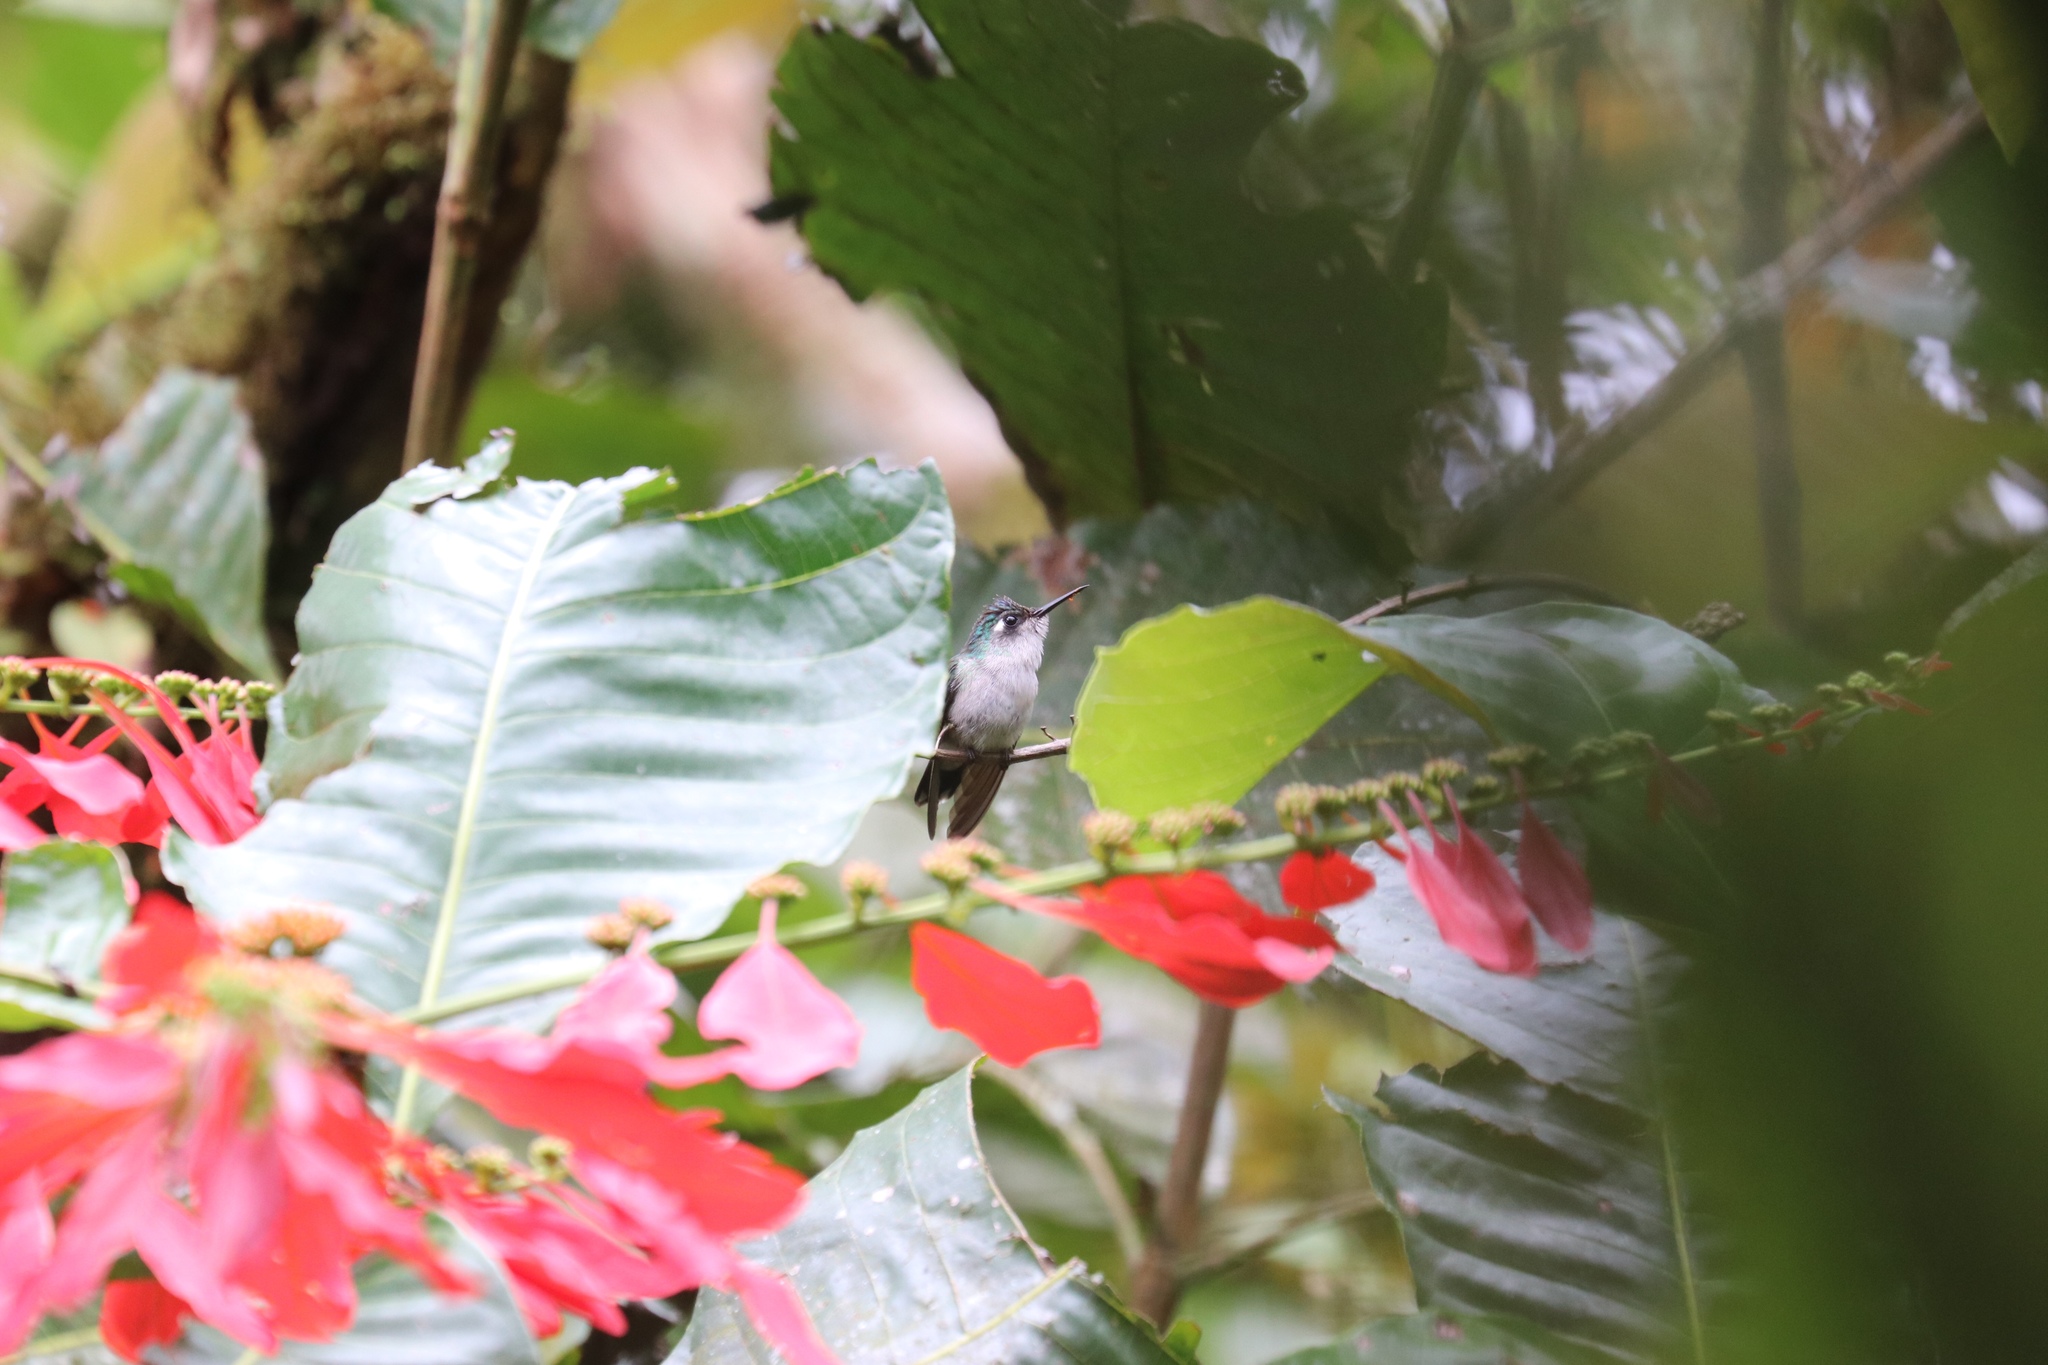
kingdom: Animalia
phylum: Chordata
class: Aves
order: Apodiformes
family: Trochilidae
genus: Klais
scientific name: Klais guimeti
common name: Violet-headed hummingbird
